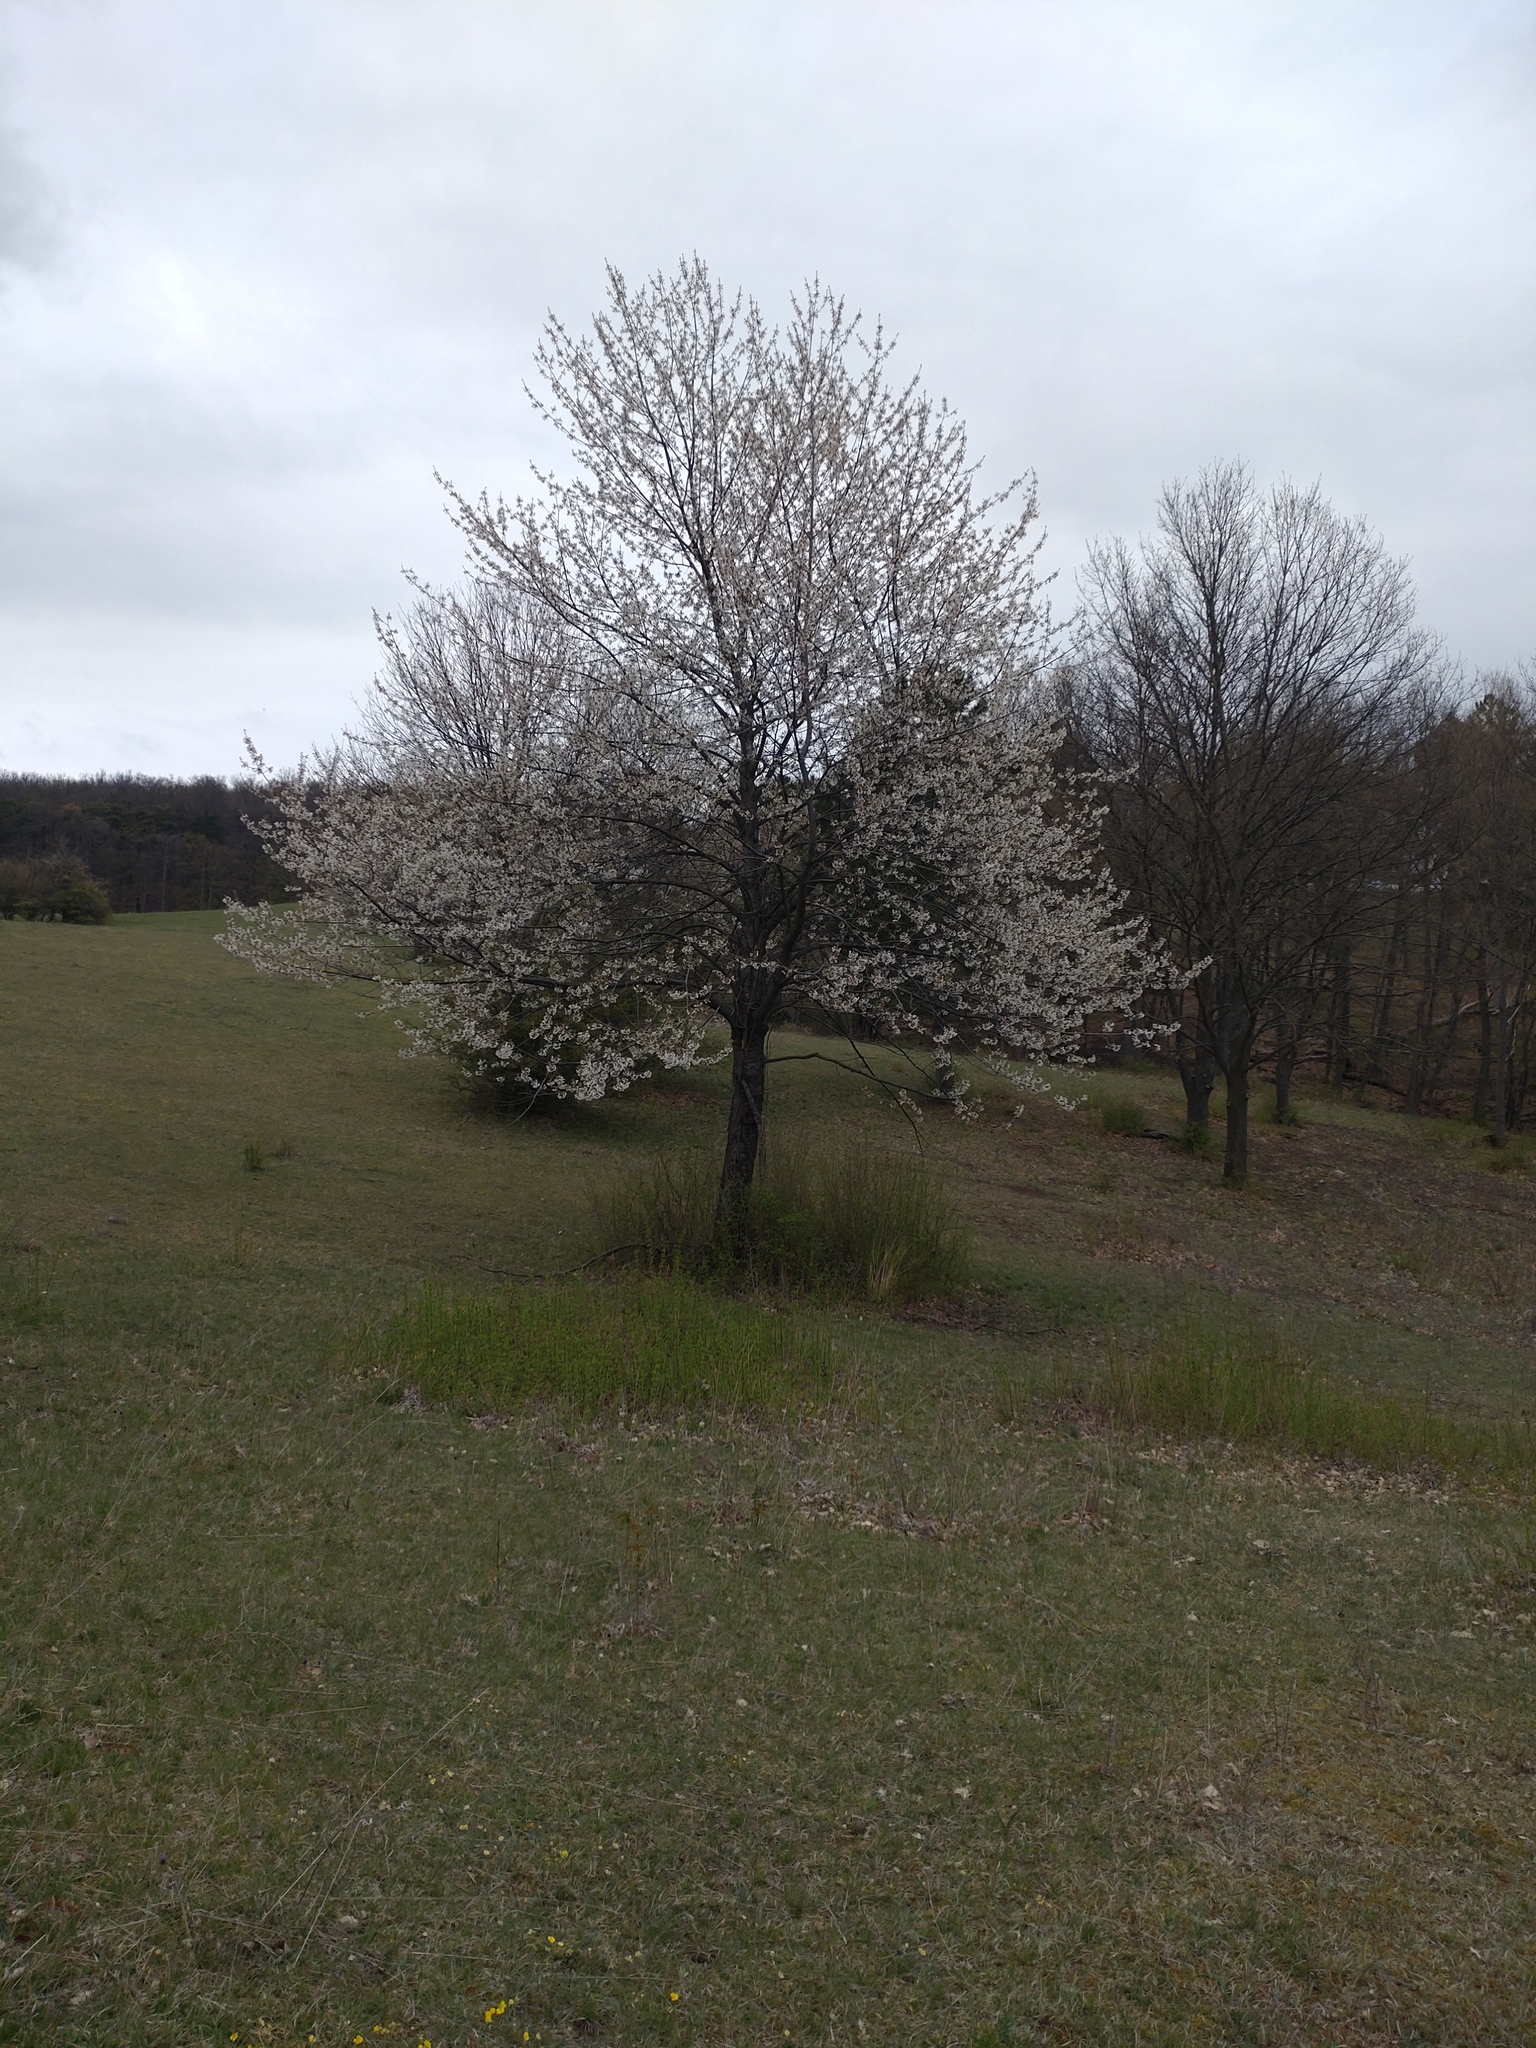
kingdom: Plantae
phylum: Tracheophyta
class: Magnoliopsida
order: Rosales
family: Rosaceae
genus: Prunus
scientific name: Prunus avium
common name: Sweet cherry
